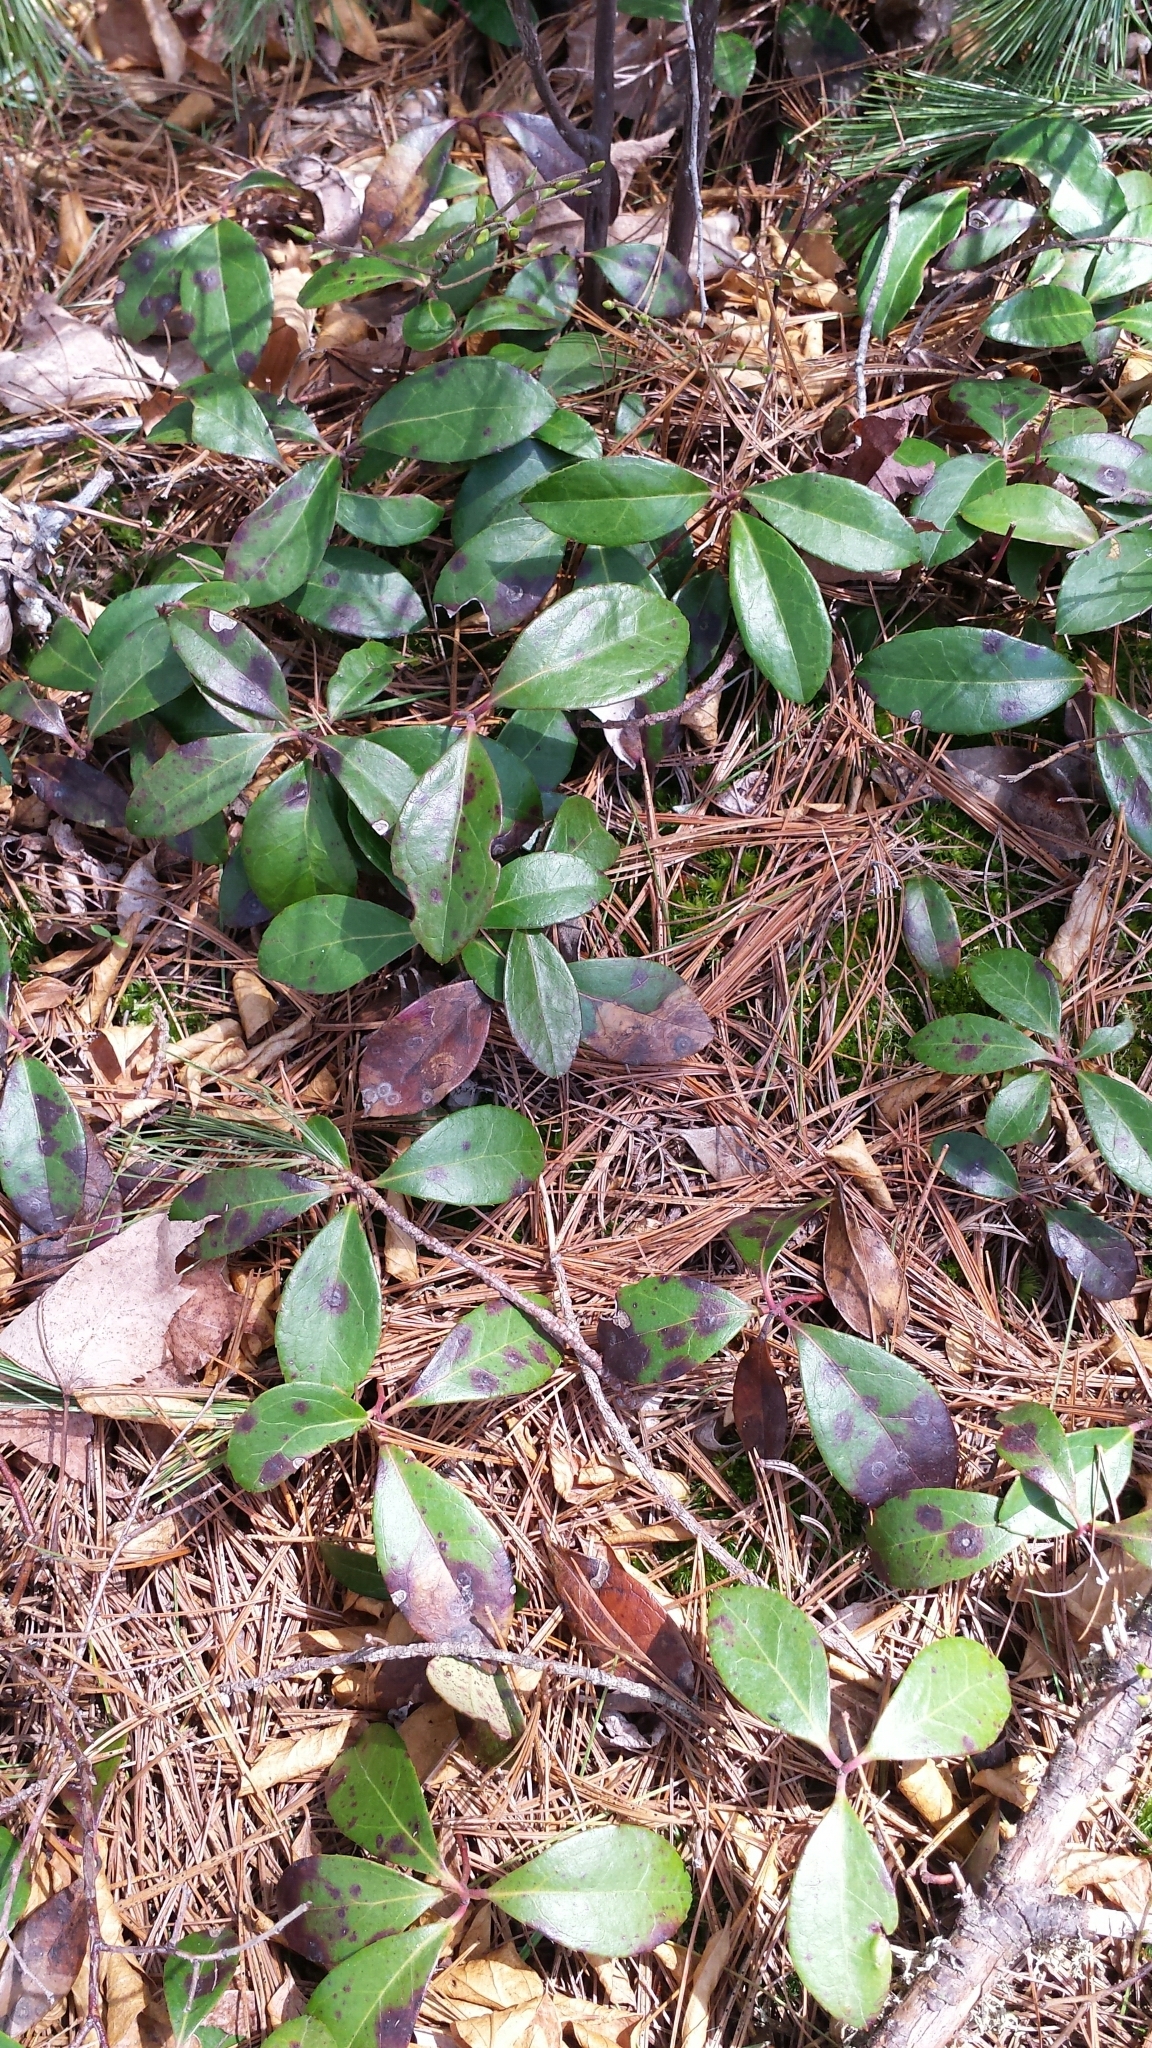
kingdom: Plantae
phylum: Tracheophyta
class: Magnoliopsida
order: Ericales
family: Ericaceae
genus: Gaultheria
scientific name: Gaultheria procumbens
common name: Checkerberry
